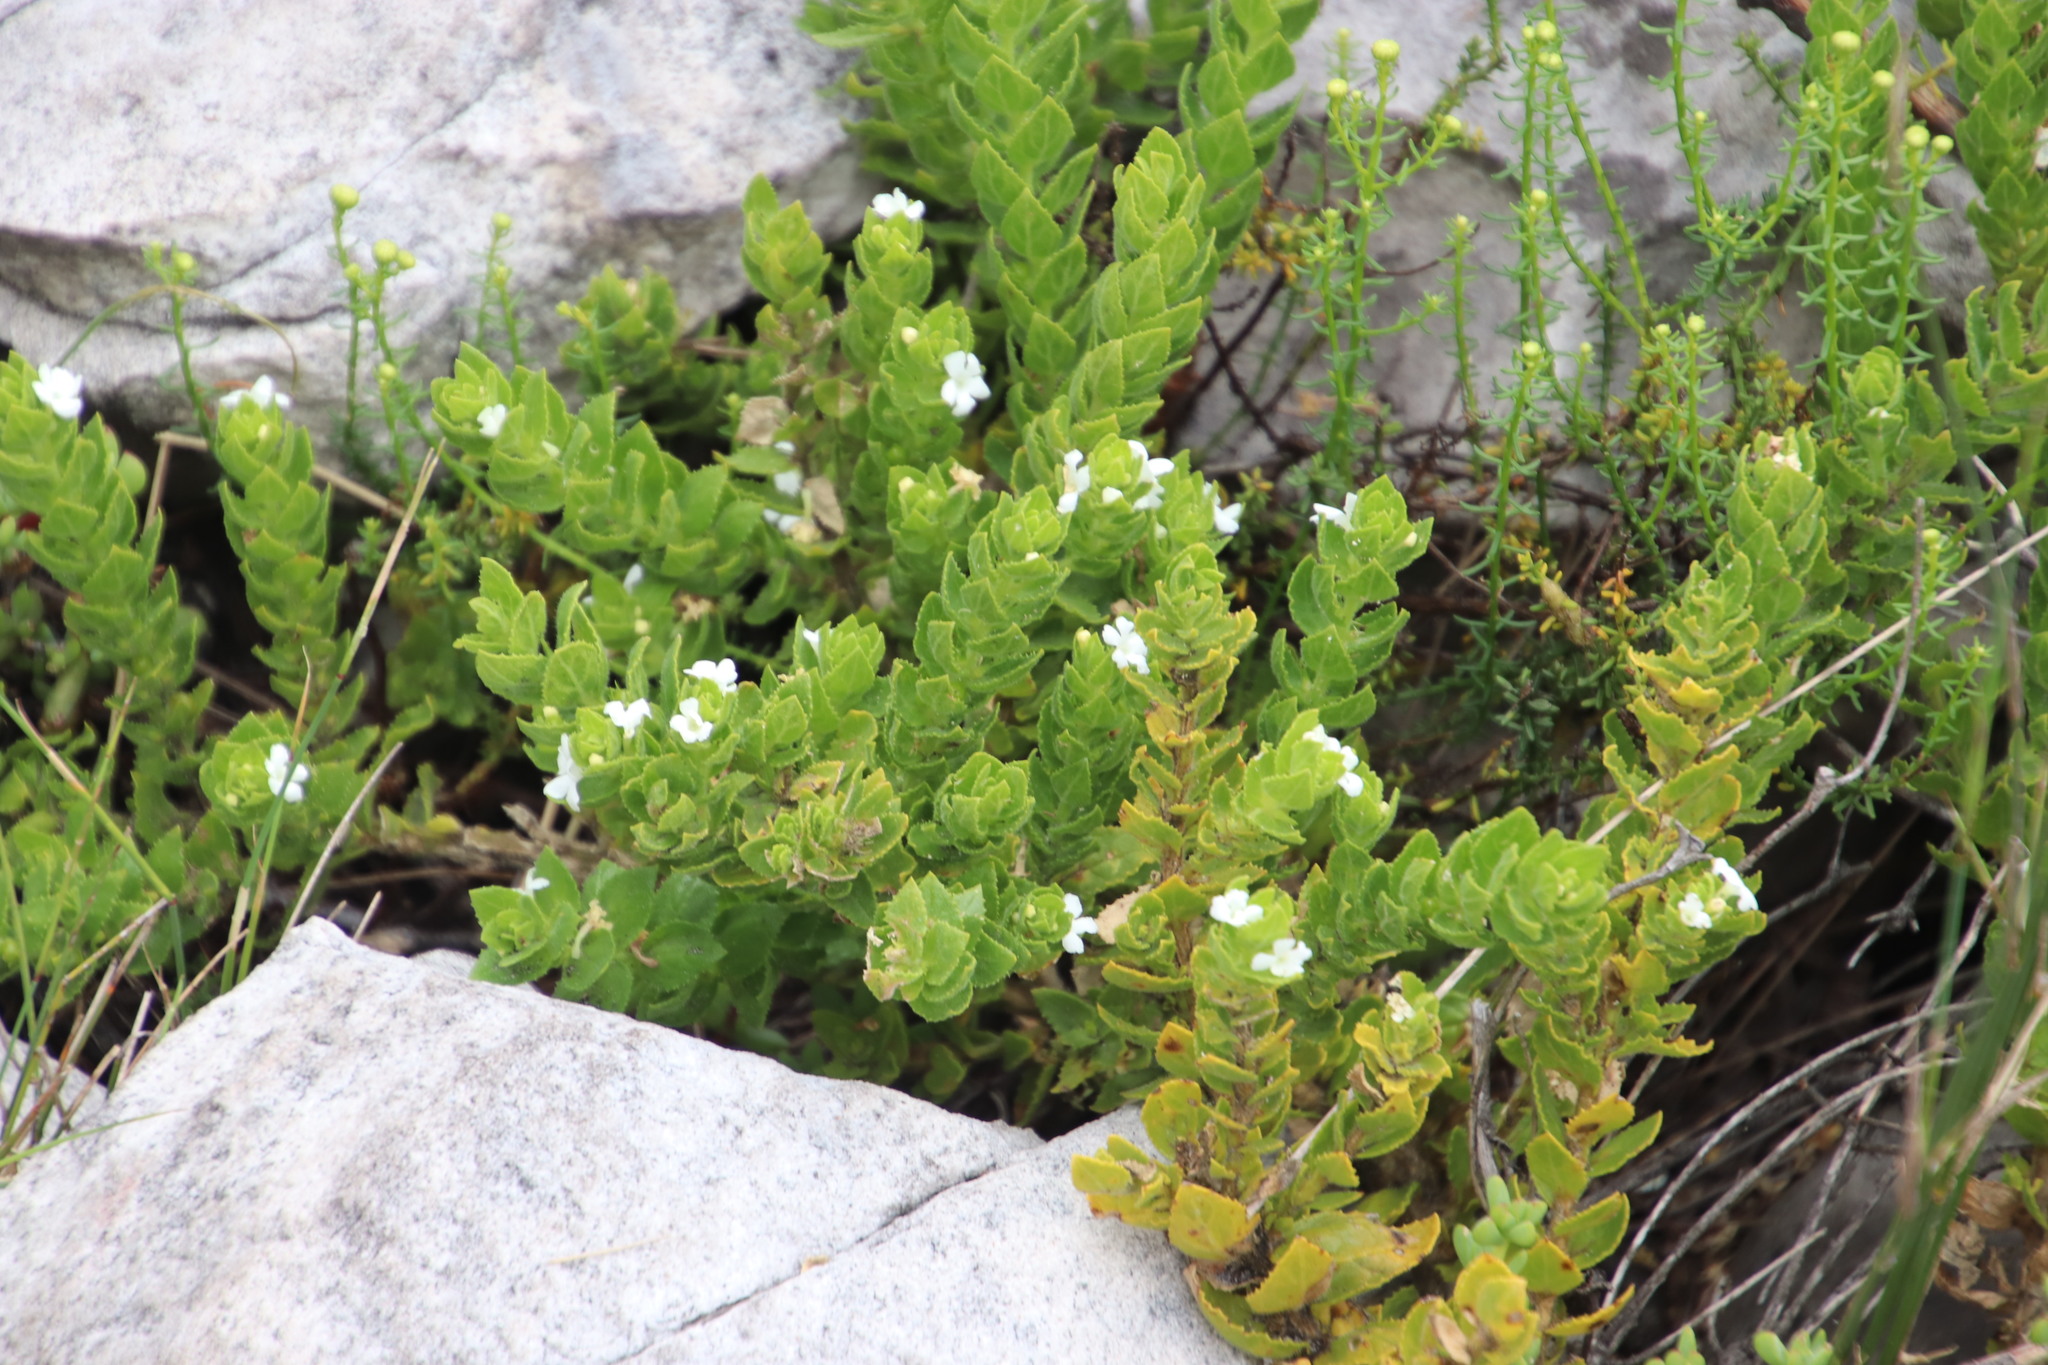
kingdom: Plantae
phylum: Tracheophyta
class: Magnoliopsida
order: Lamiales
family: Scrophulariaceae
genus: Oftia
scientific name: Oftia africana
